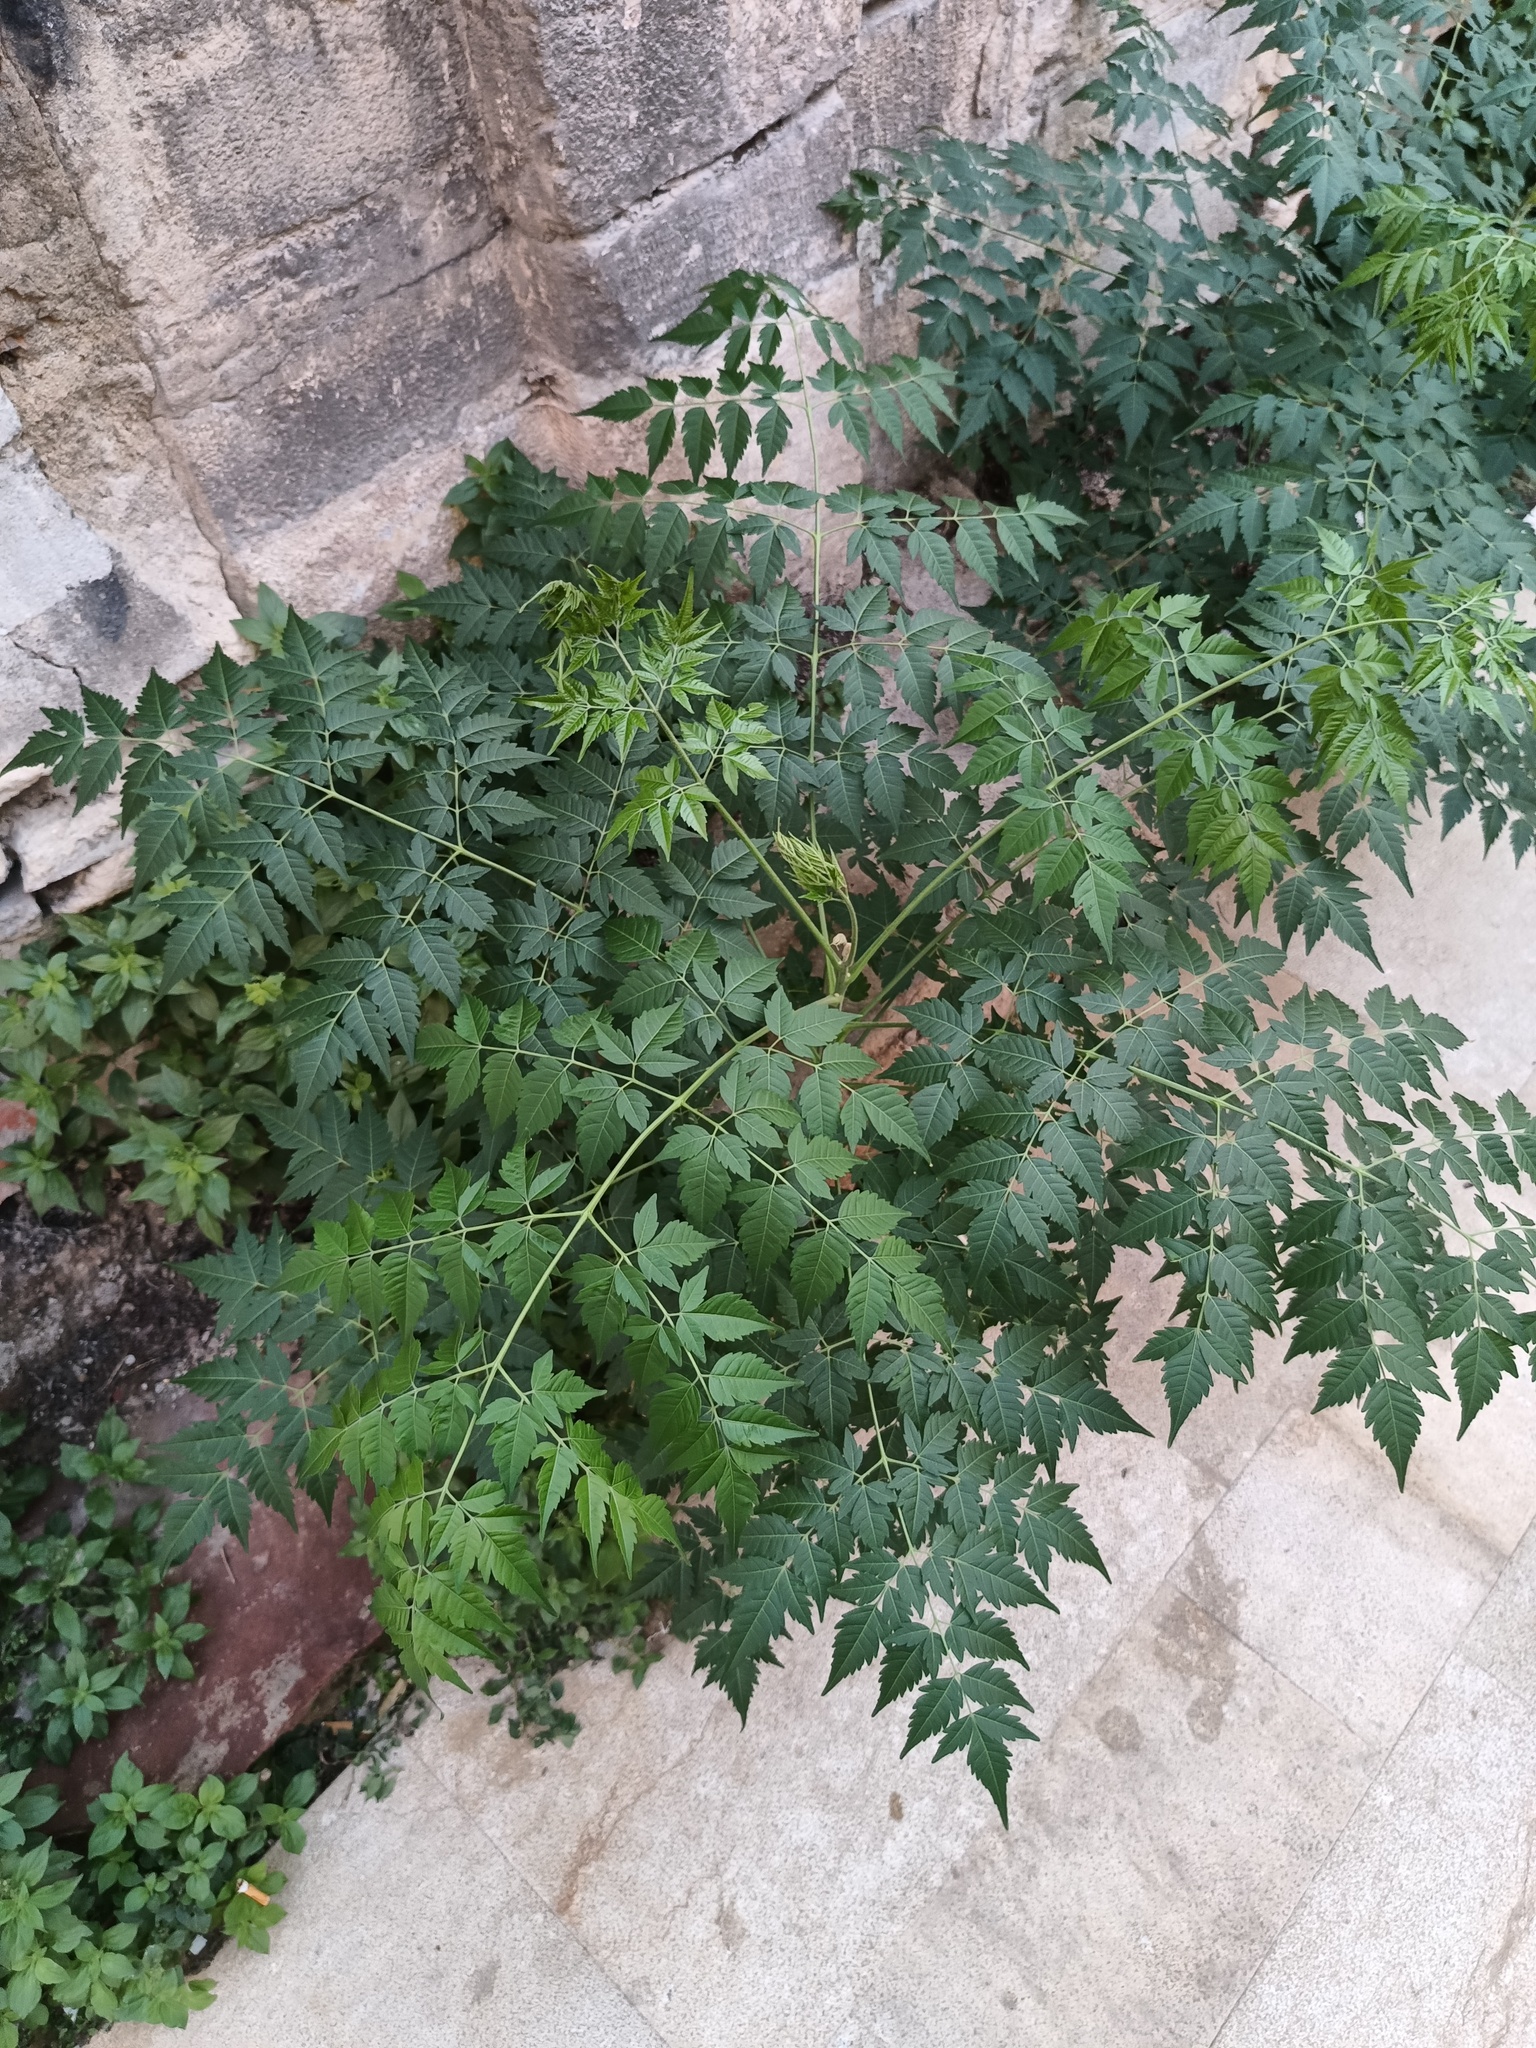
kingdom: Plantae
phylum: Tracheophyta
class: Magnoliopsida
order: Sapindales
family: Meliaceae
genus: Melia
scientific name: Melia azedarach
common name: Chinaberrytree
